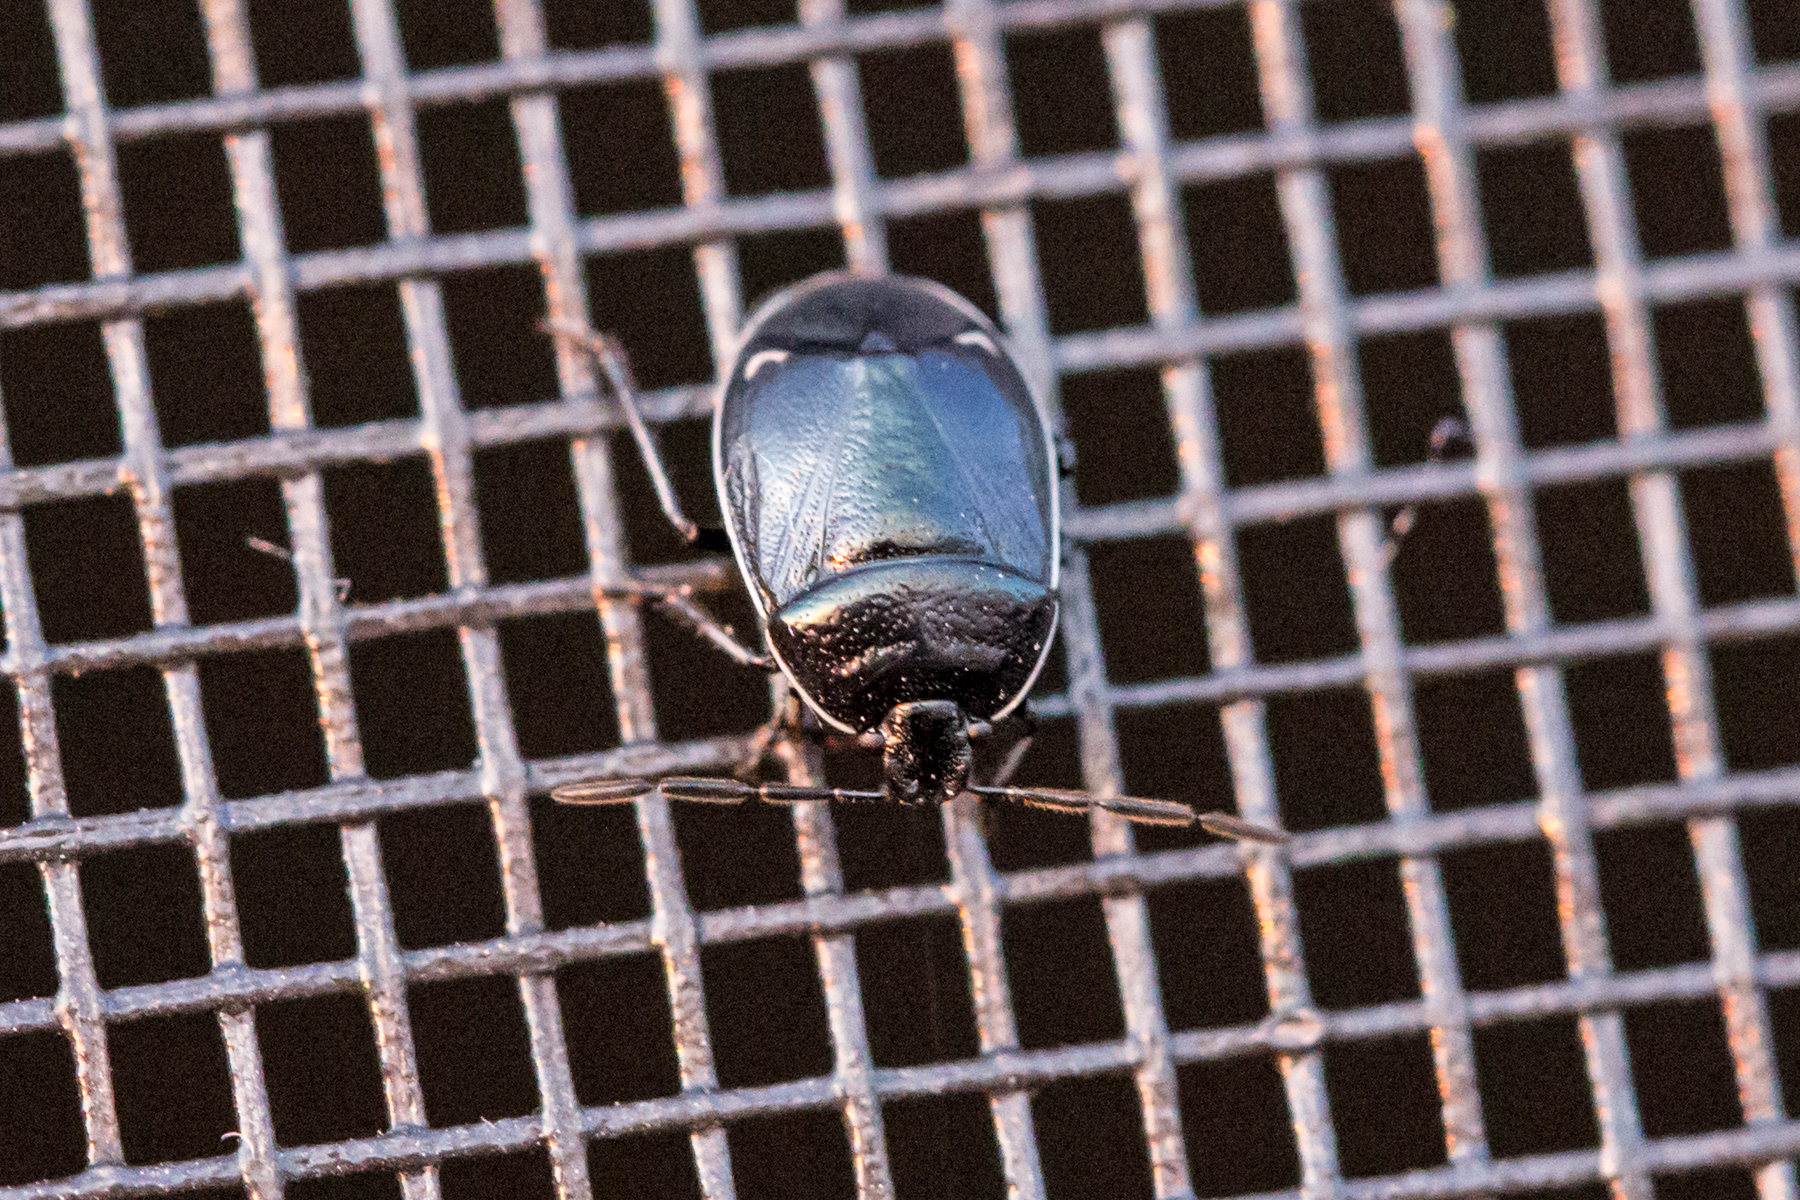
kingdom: Animalia
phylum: Arthropoda
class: Insecta
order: Hemiptera
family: Cydnidae
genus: Sehirus
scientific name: Sehirus cinctus
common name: White-margined burrower bug
